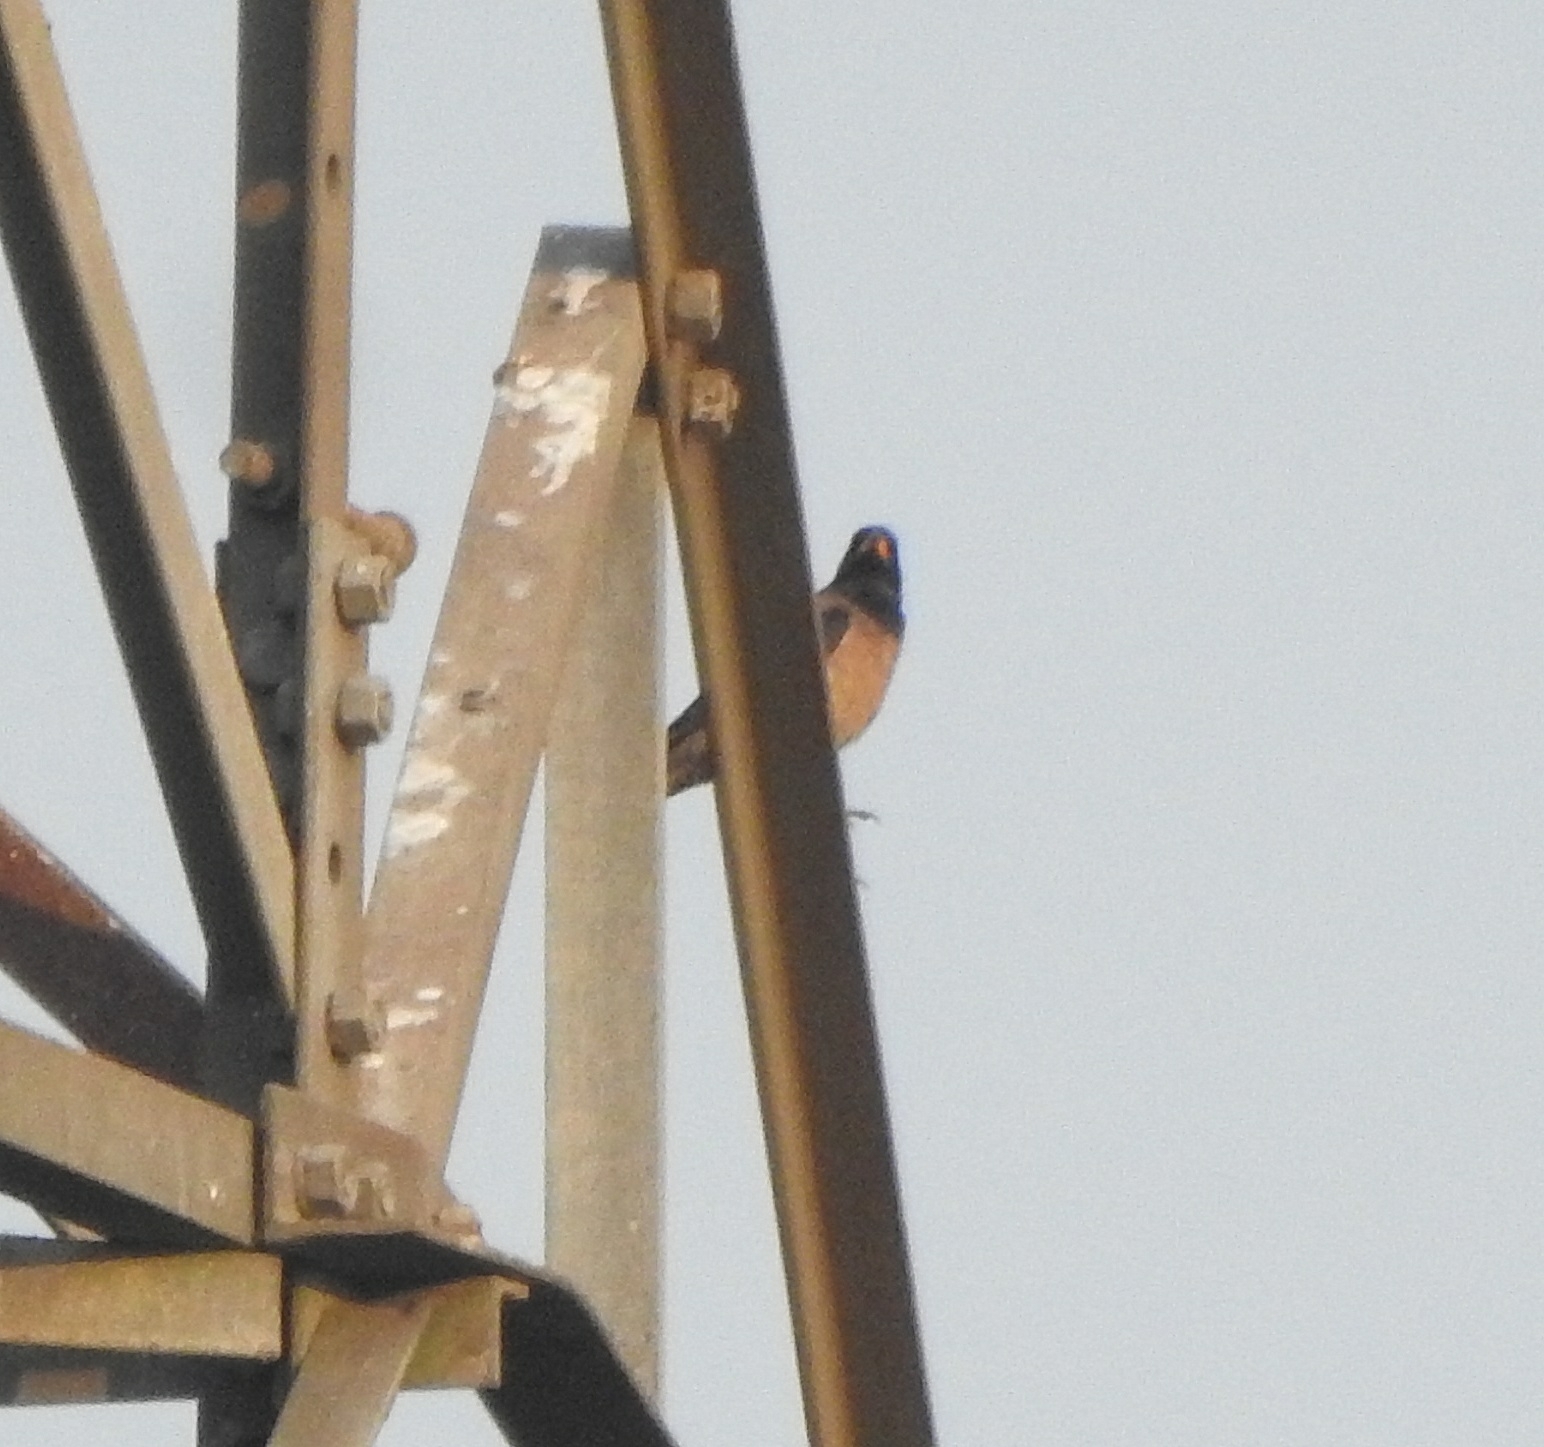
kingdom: Animalia
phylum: Chordata
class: Aves
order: Passeriformes
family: Sturnidae
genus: Pastor
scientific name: Pastor roseus
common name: Rosy starling
